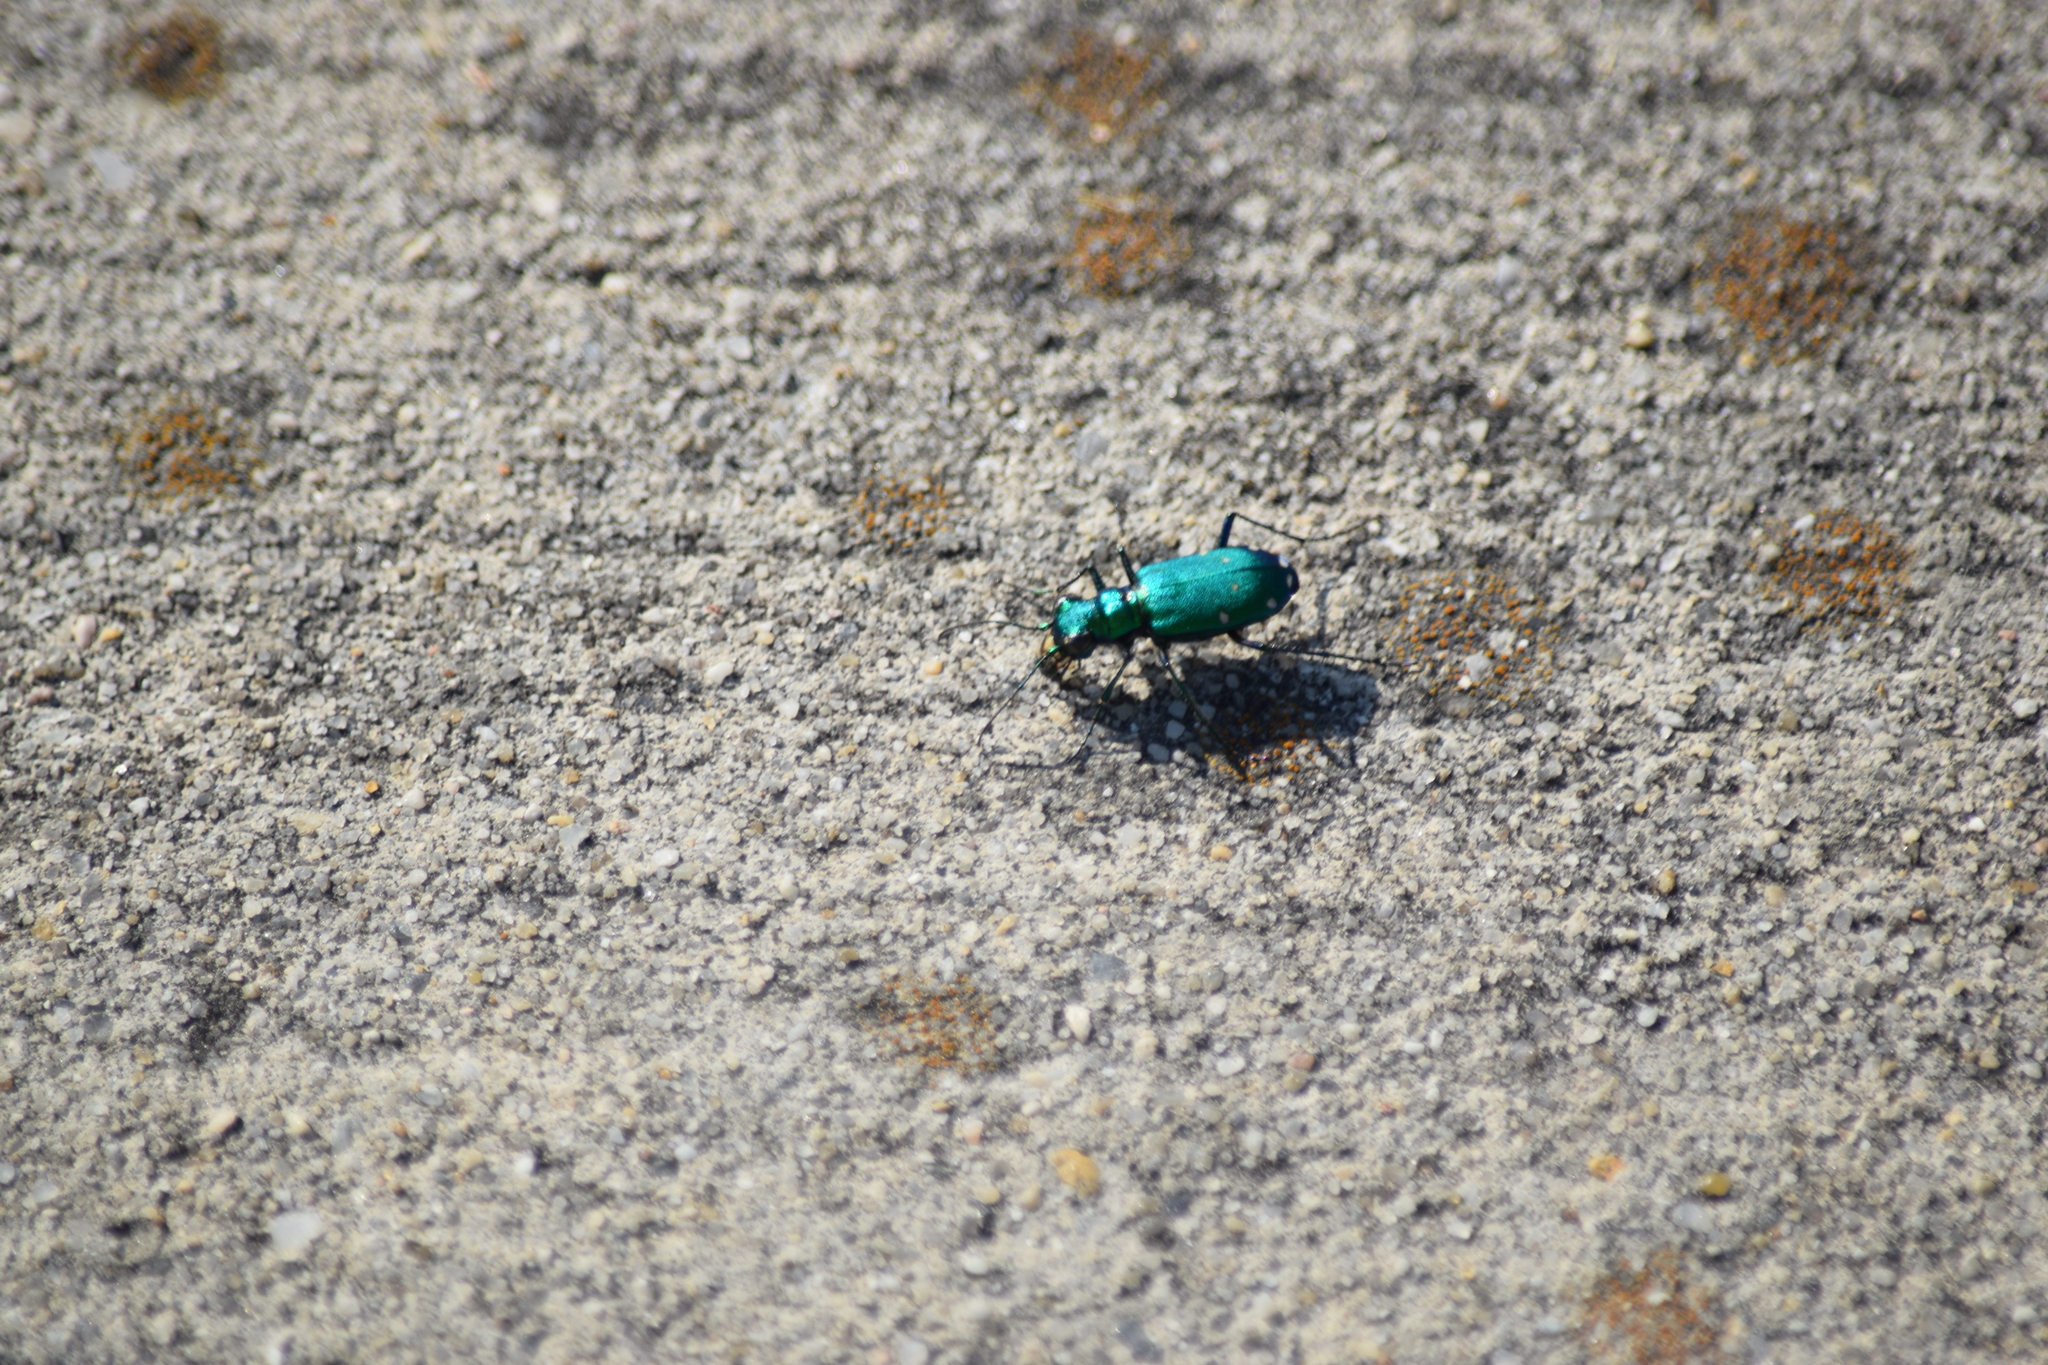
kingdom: Animalia
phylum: Arthropoda
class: Insecta
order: Coleoptera
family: Carabidae
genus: Cicindela
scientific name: Cicindela sexguttata
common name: Six-spotted tiger beetle
